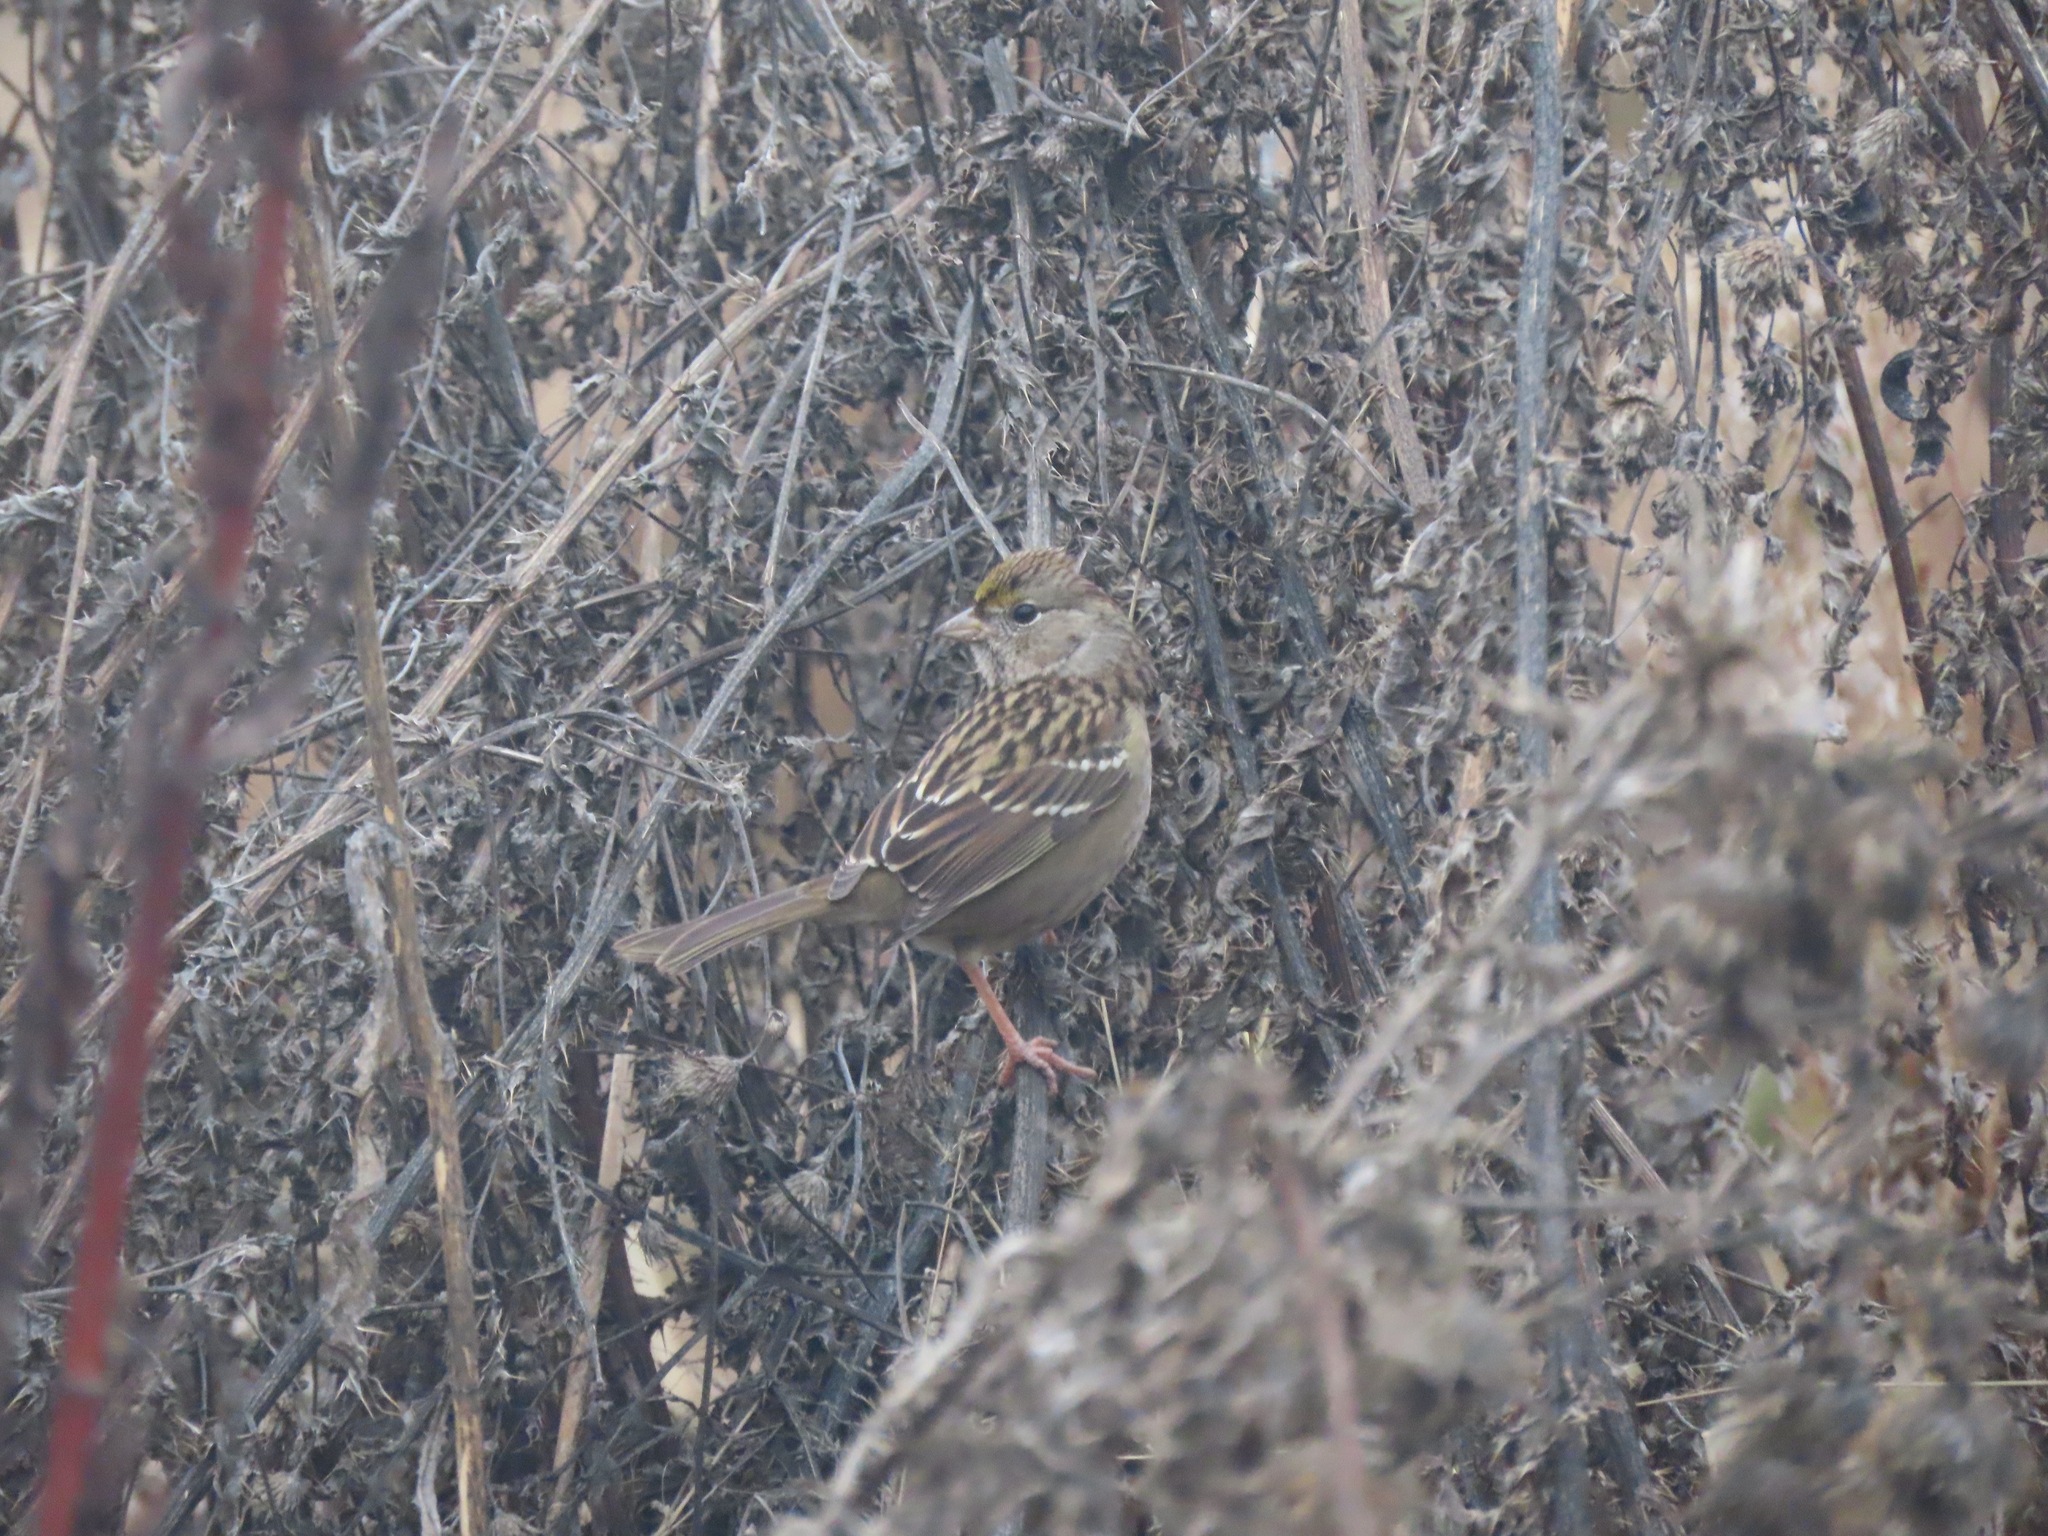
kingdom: Animalia
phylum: Chordata
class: Aves
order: Passeriformes
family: Passerellidae
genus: Zonotrichia
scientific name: Zonotrichia atricapilla
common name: Golden-crowned sparrow
